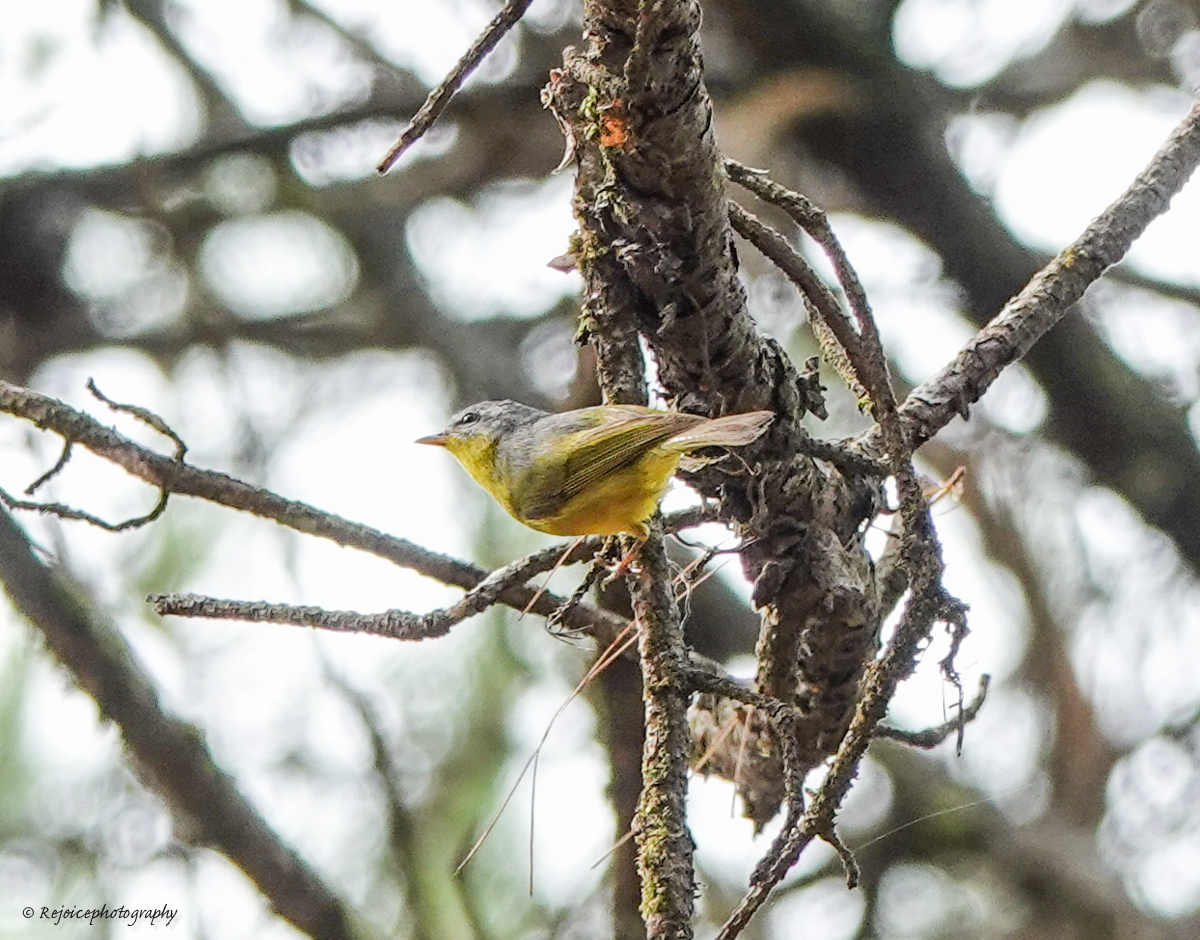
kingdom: Animalia
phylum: Chordata
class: Aves
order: Passeriformes
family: Phylloscopidae
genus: Phylloscopus
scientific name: Phylloscopus xanthoschistos
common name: Grey-hooded warbler
